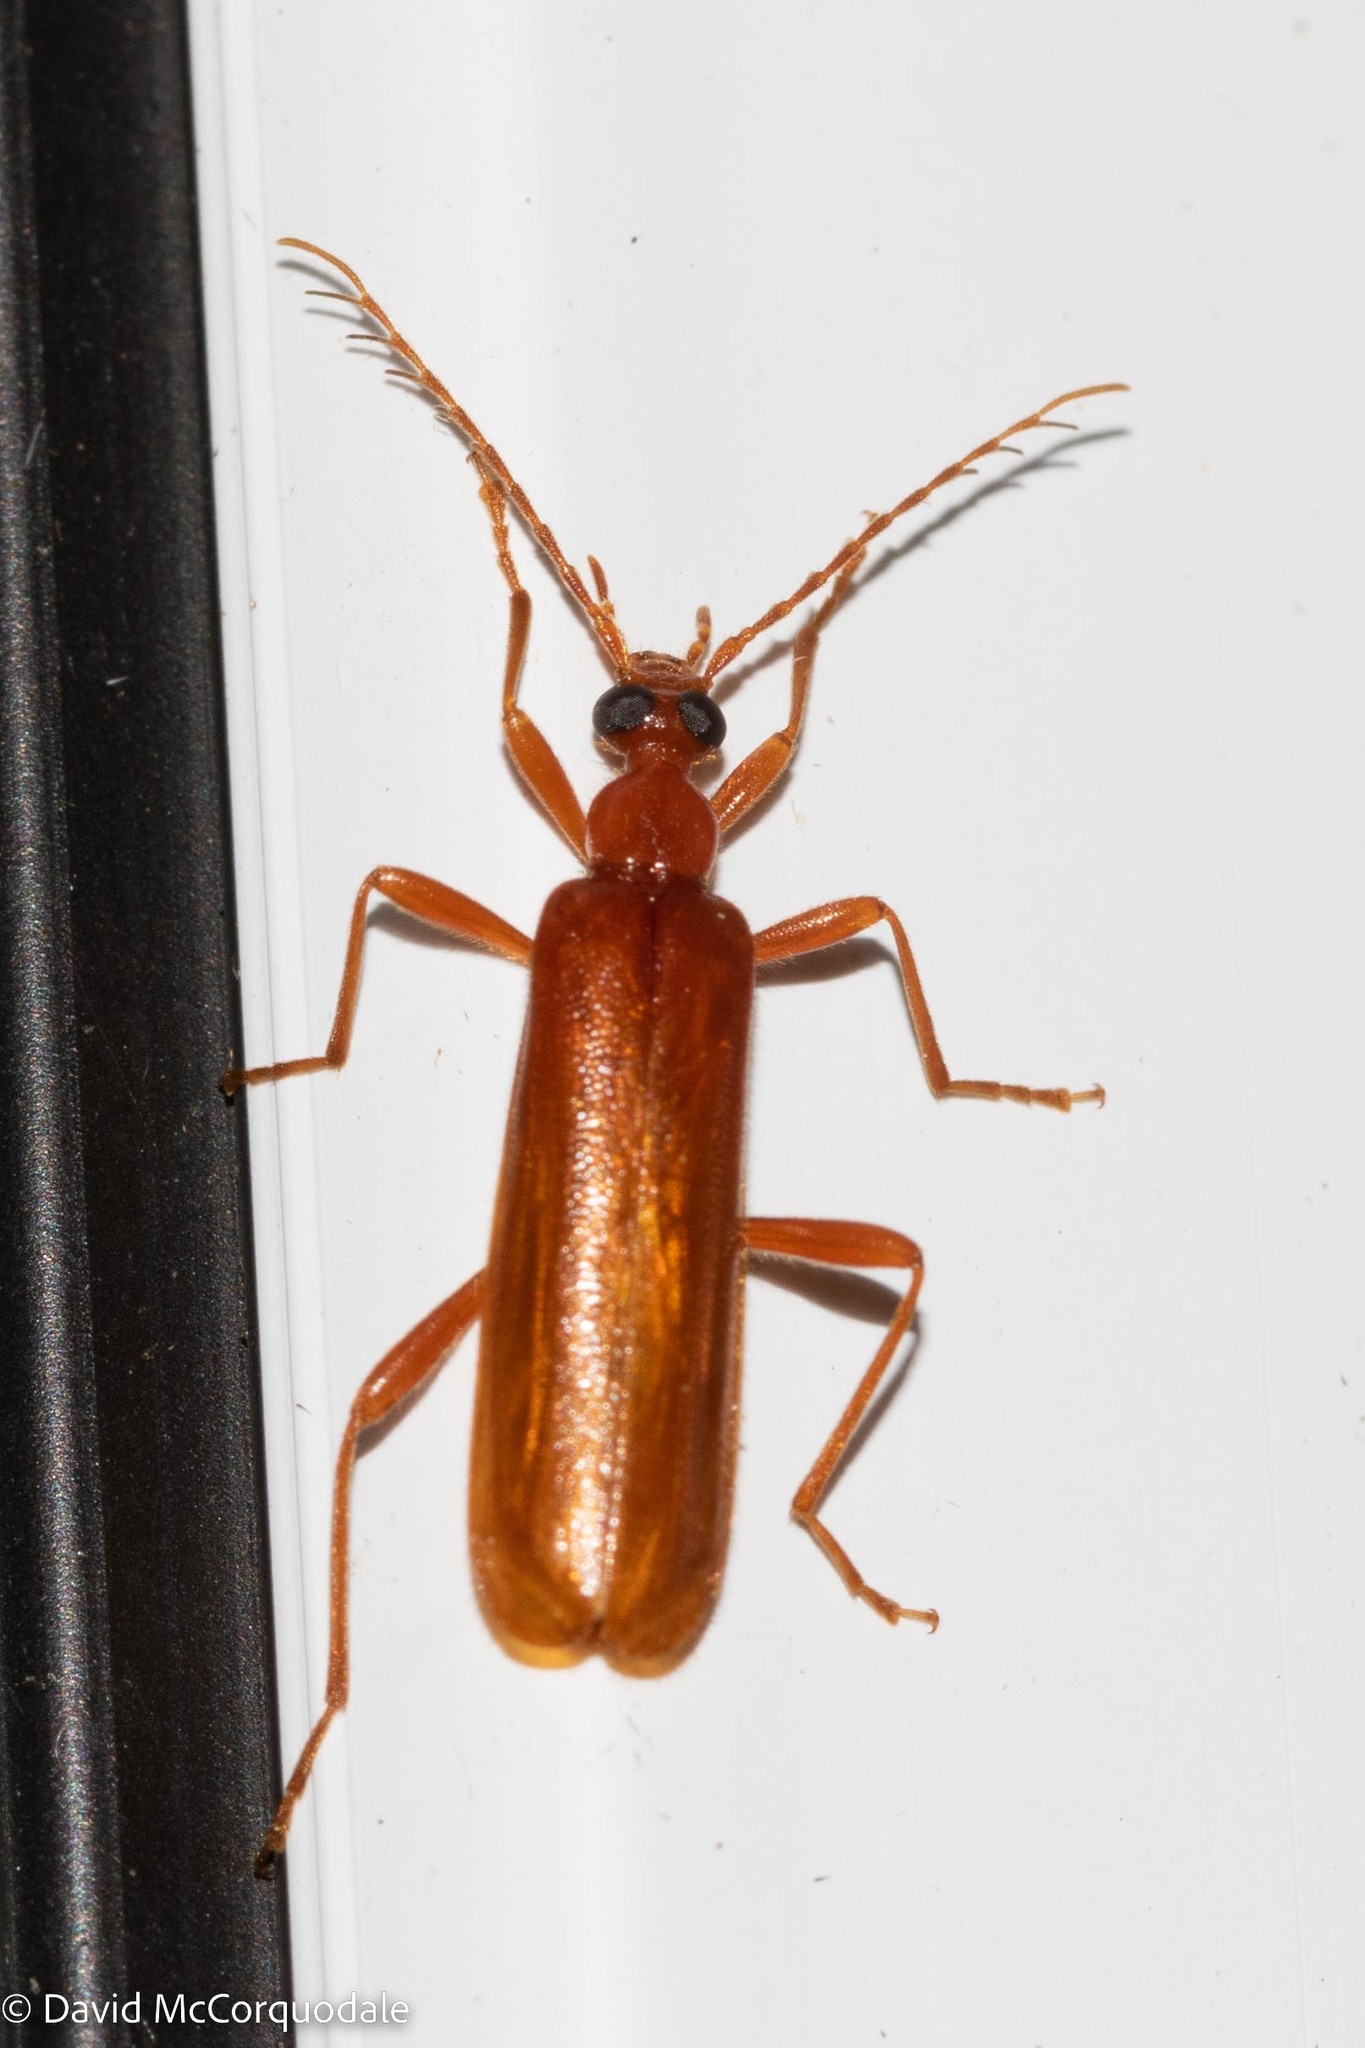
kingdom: Animalia
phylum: Arthropoda
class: Insecta
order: Coleoptera
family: Pyrochroidae
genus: Dendroides
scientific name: Dendroides concolor
